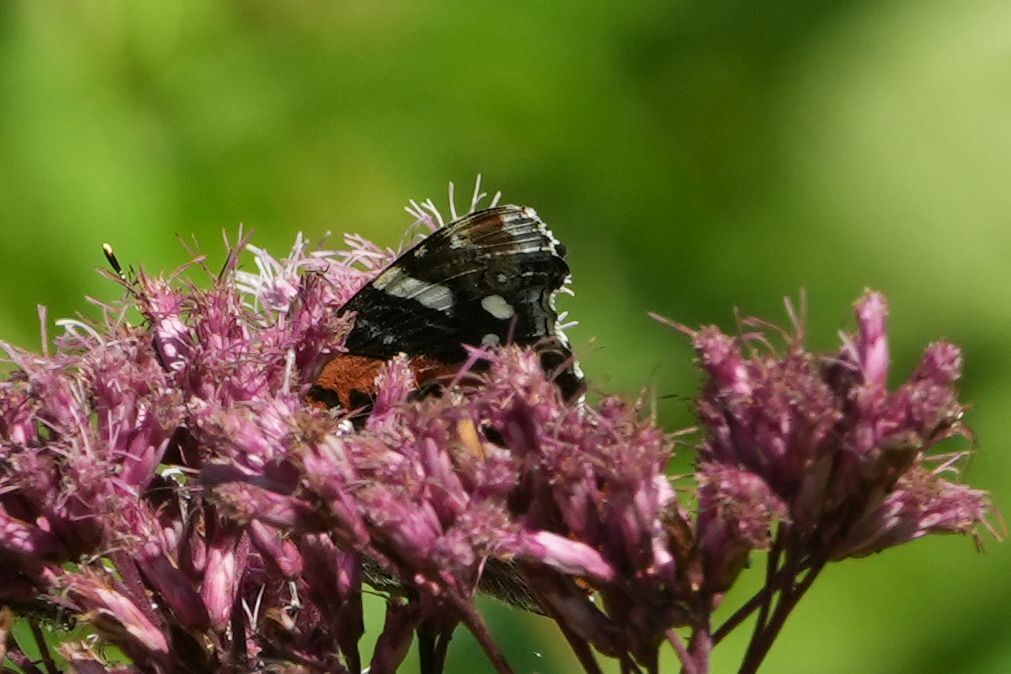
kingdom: Animalia
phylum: Arthropoda
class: Insecta
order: Lepidoptera
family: Nymphalidae
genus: Vanessa
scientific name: Vanessa atalanta
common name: Red admiral
